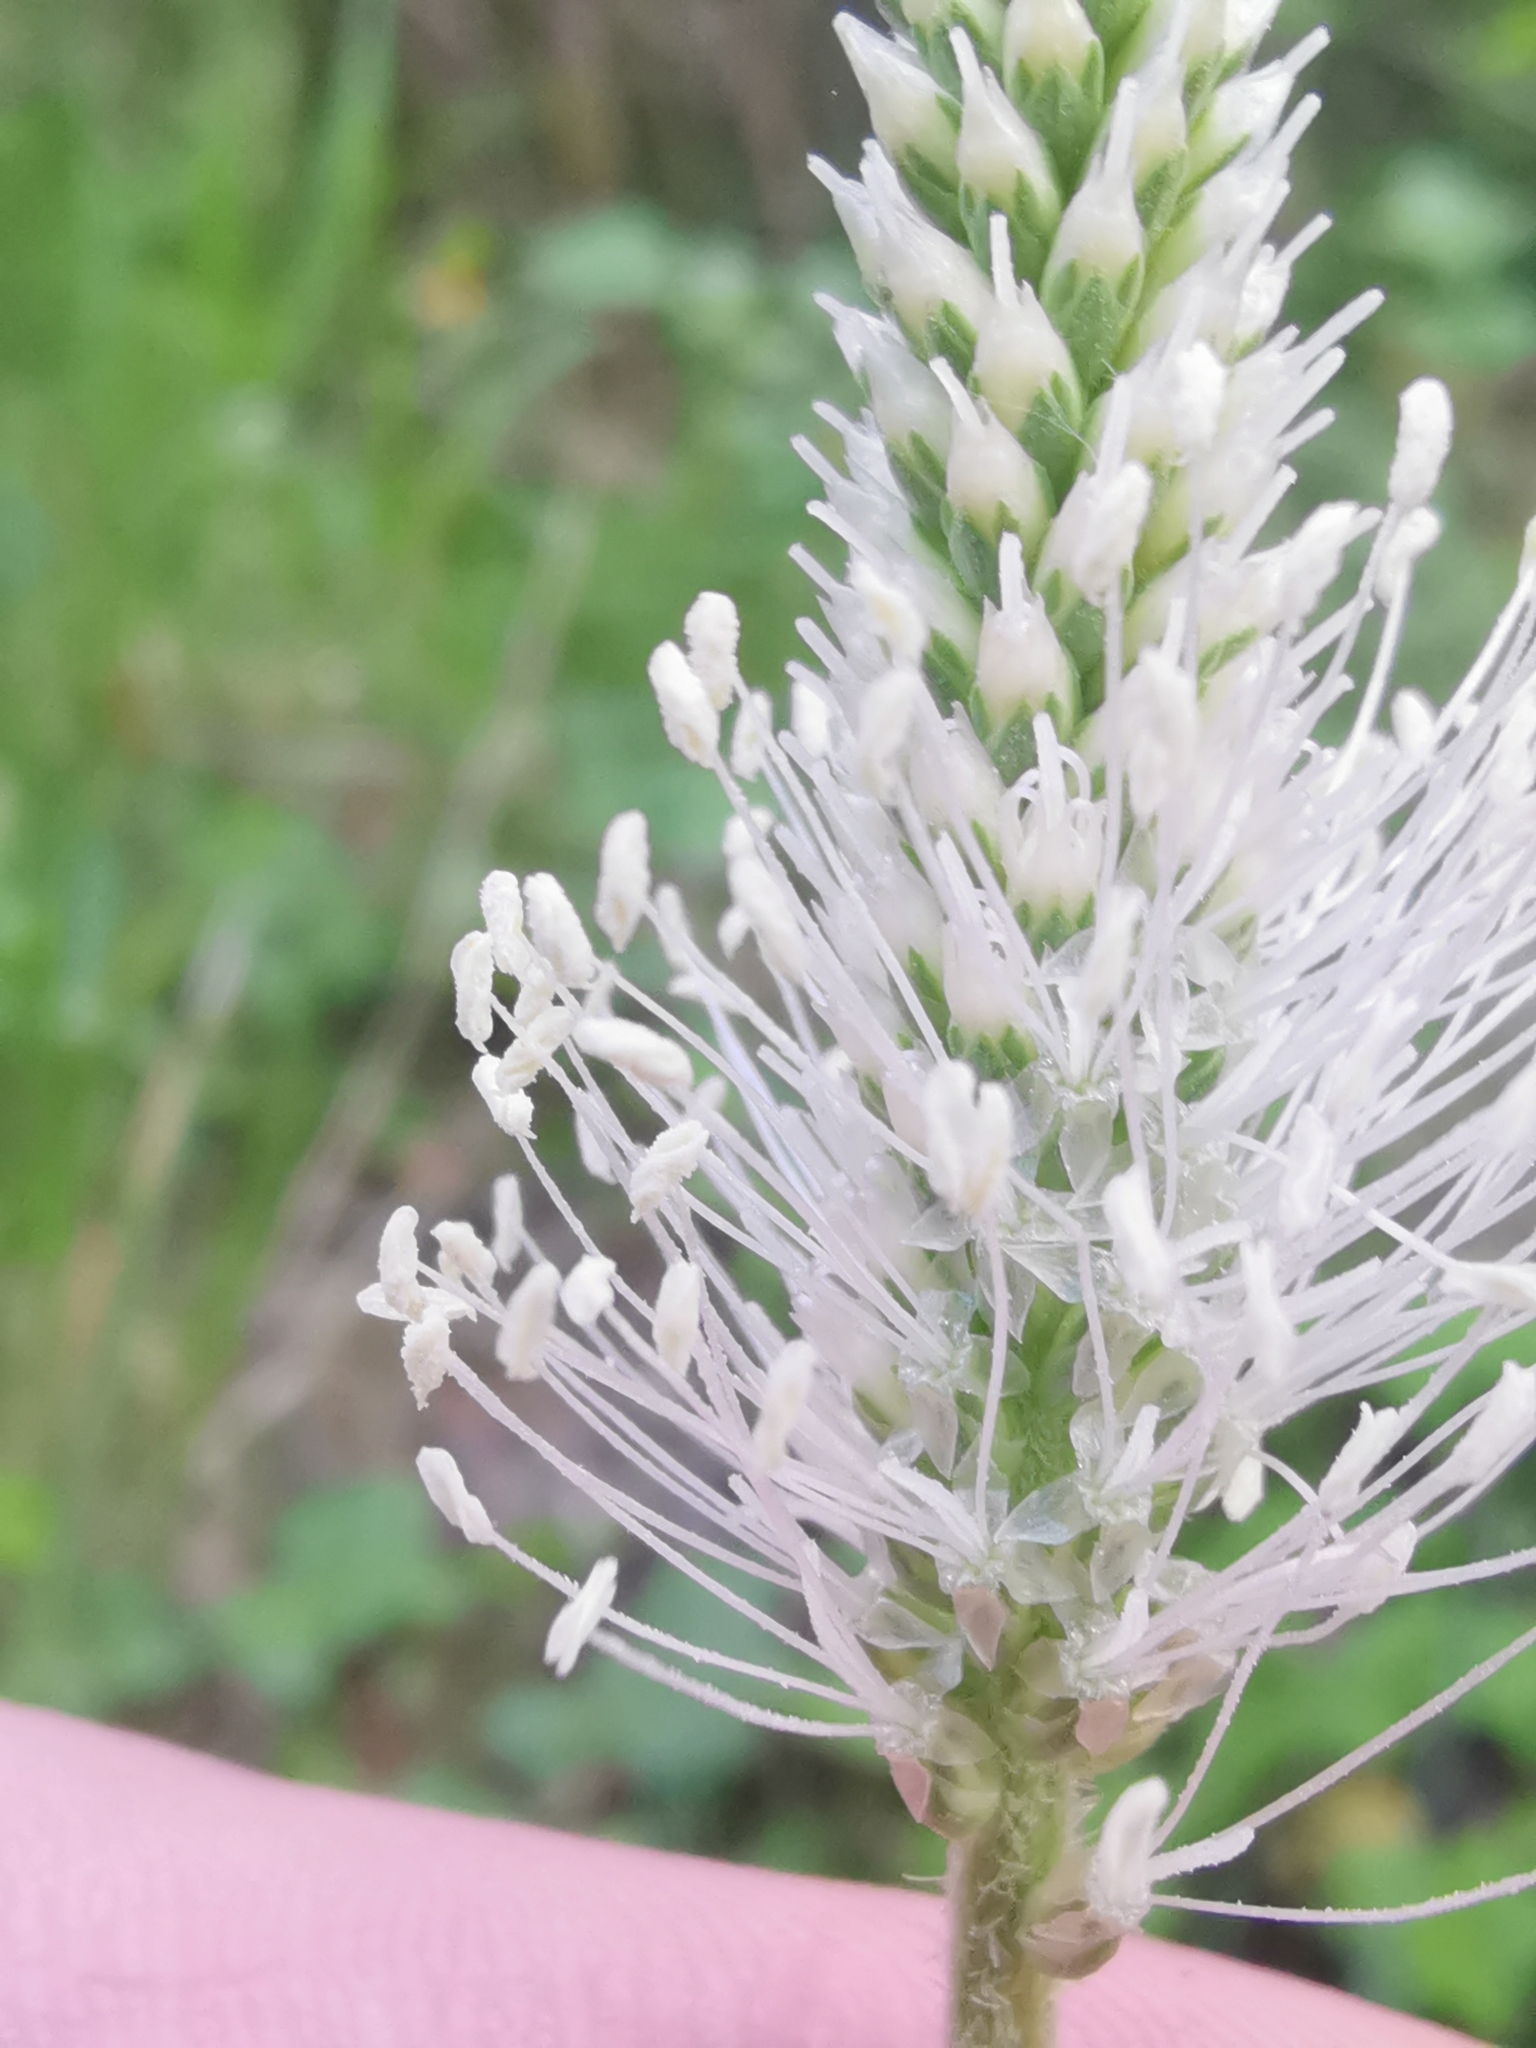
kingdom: Plantae
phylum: Tracheophyta
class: Magnoliopsida
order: Lamiales
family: Plantaginaceae
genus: Plantago
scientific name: Plantago media
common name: Hoary plantain
